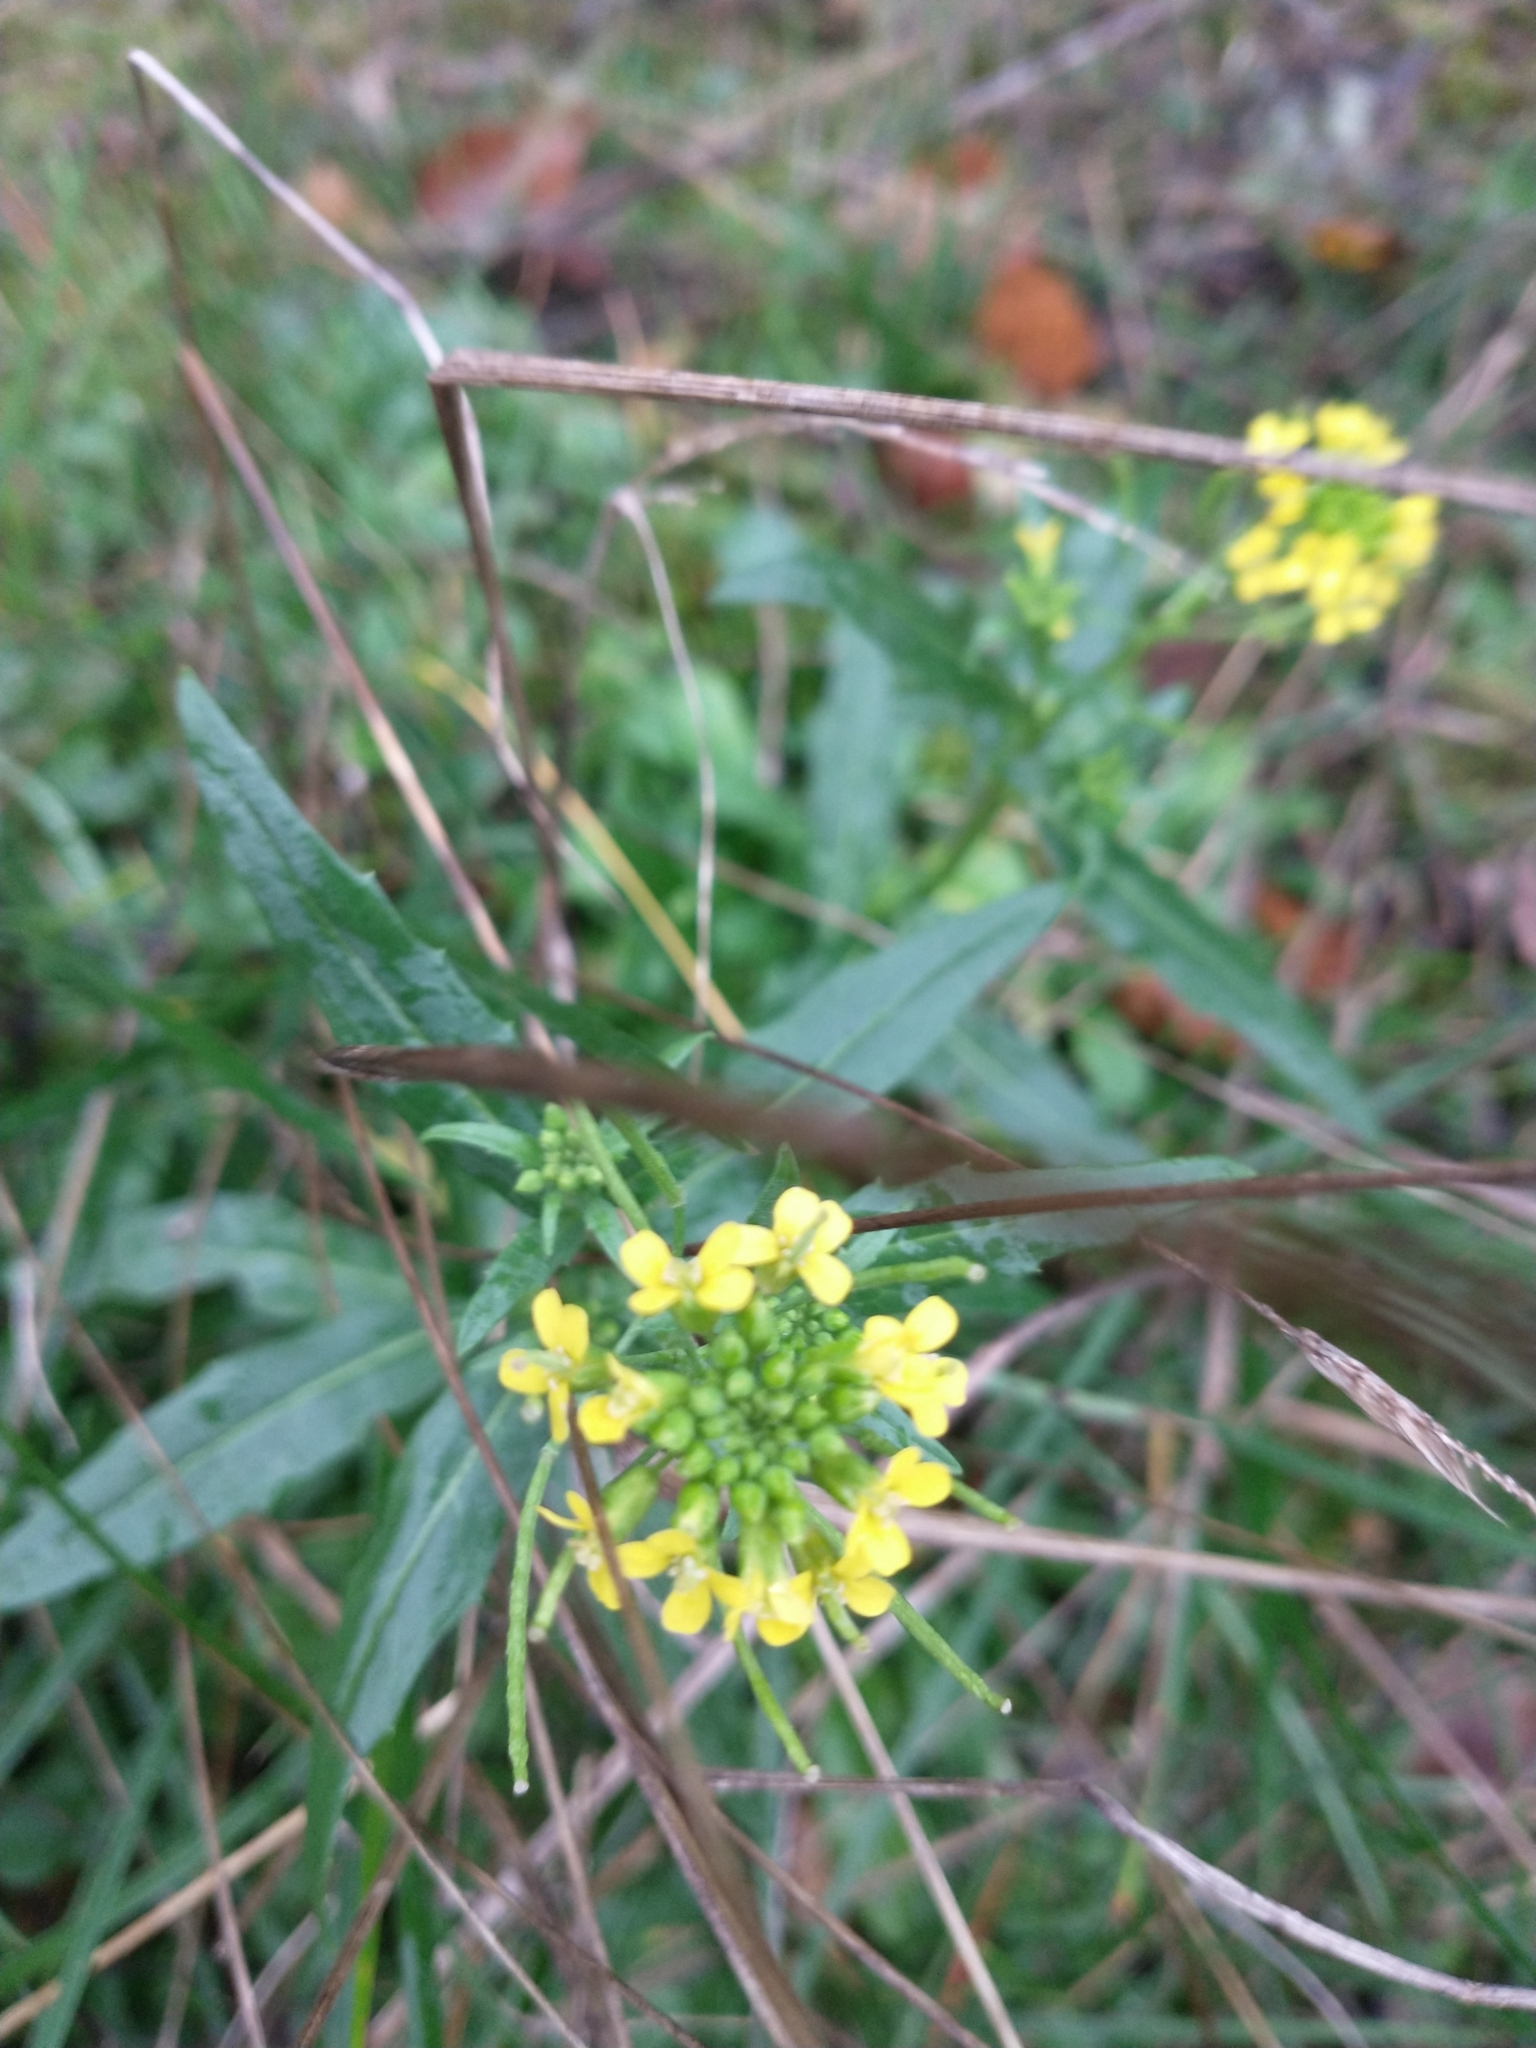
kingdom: Plantae
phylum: Tracheophyta
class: Magnoliopsida
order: Brassicales
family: Brassicaceae
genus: Erysimum
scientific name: Erysimum cheiranthoides
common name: Treacle mustard
